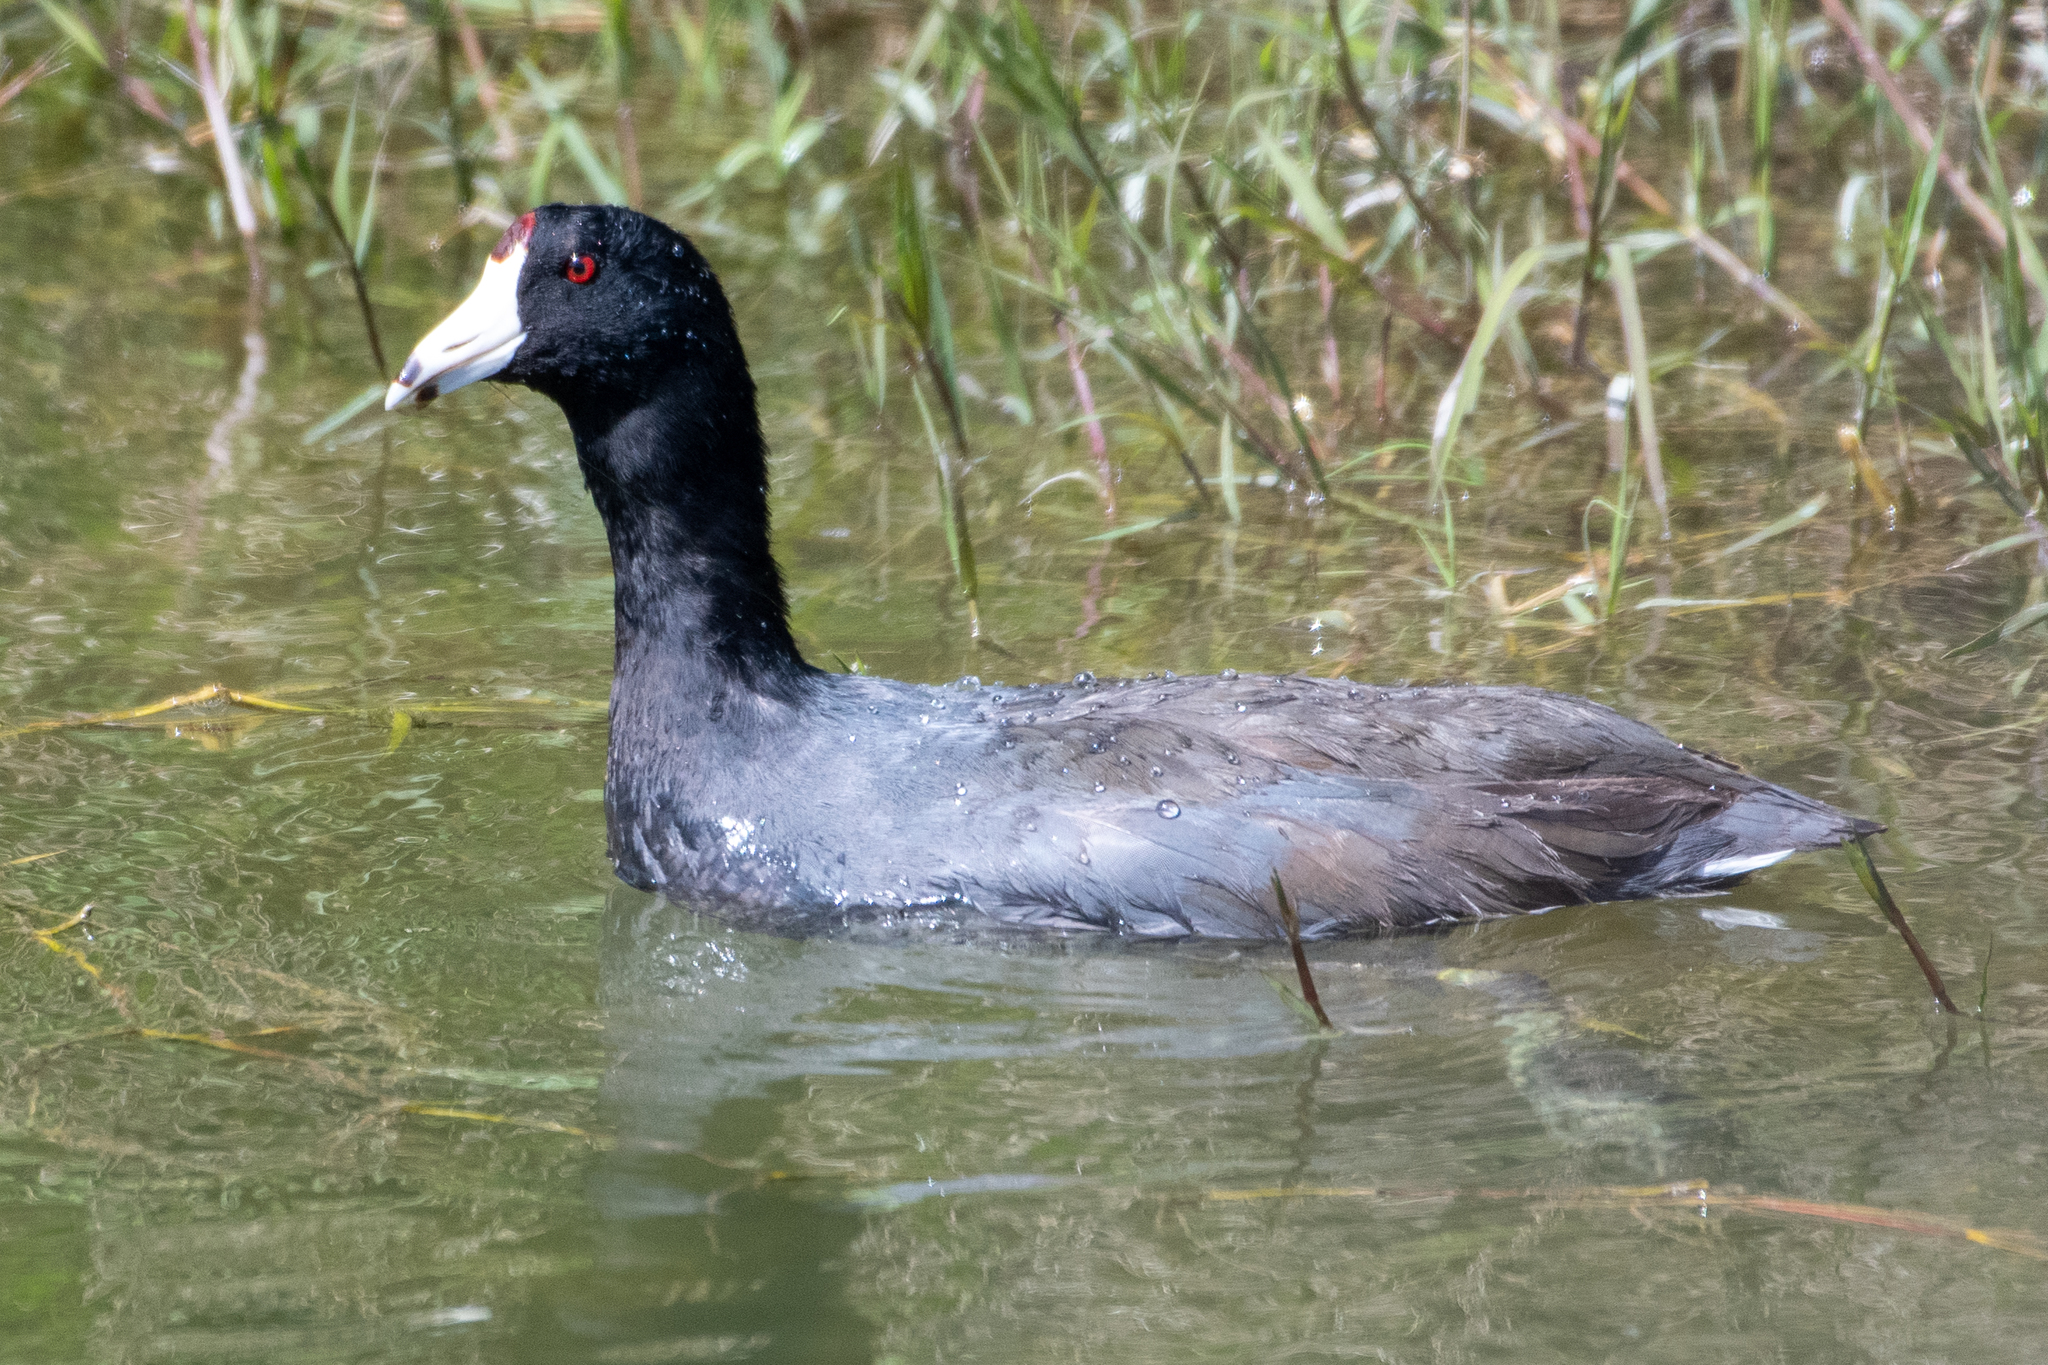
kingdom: Animalia
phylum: Chordata
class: Aves
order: Gruiformes
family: Rallidae
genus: Fulica
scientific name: Fulica americana
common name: American coot
